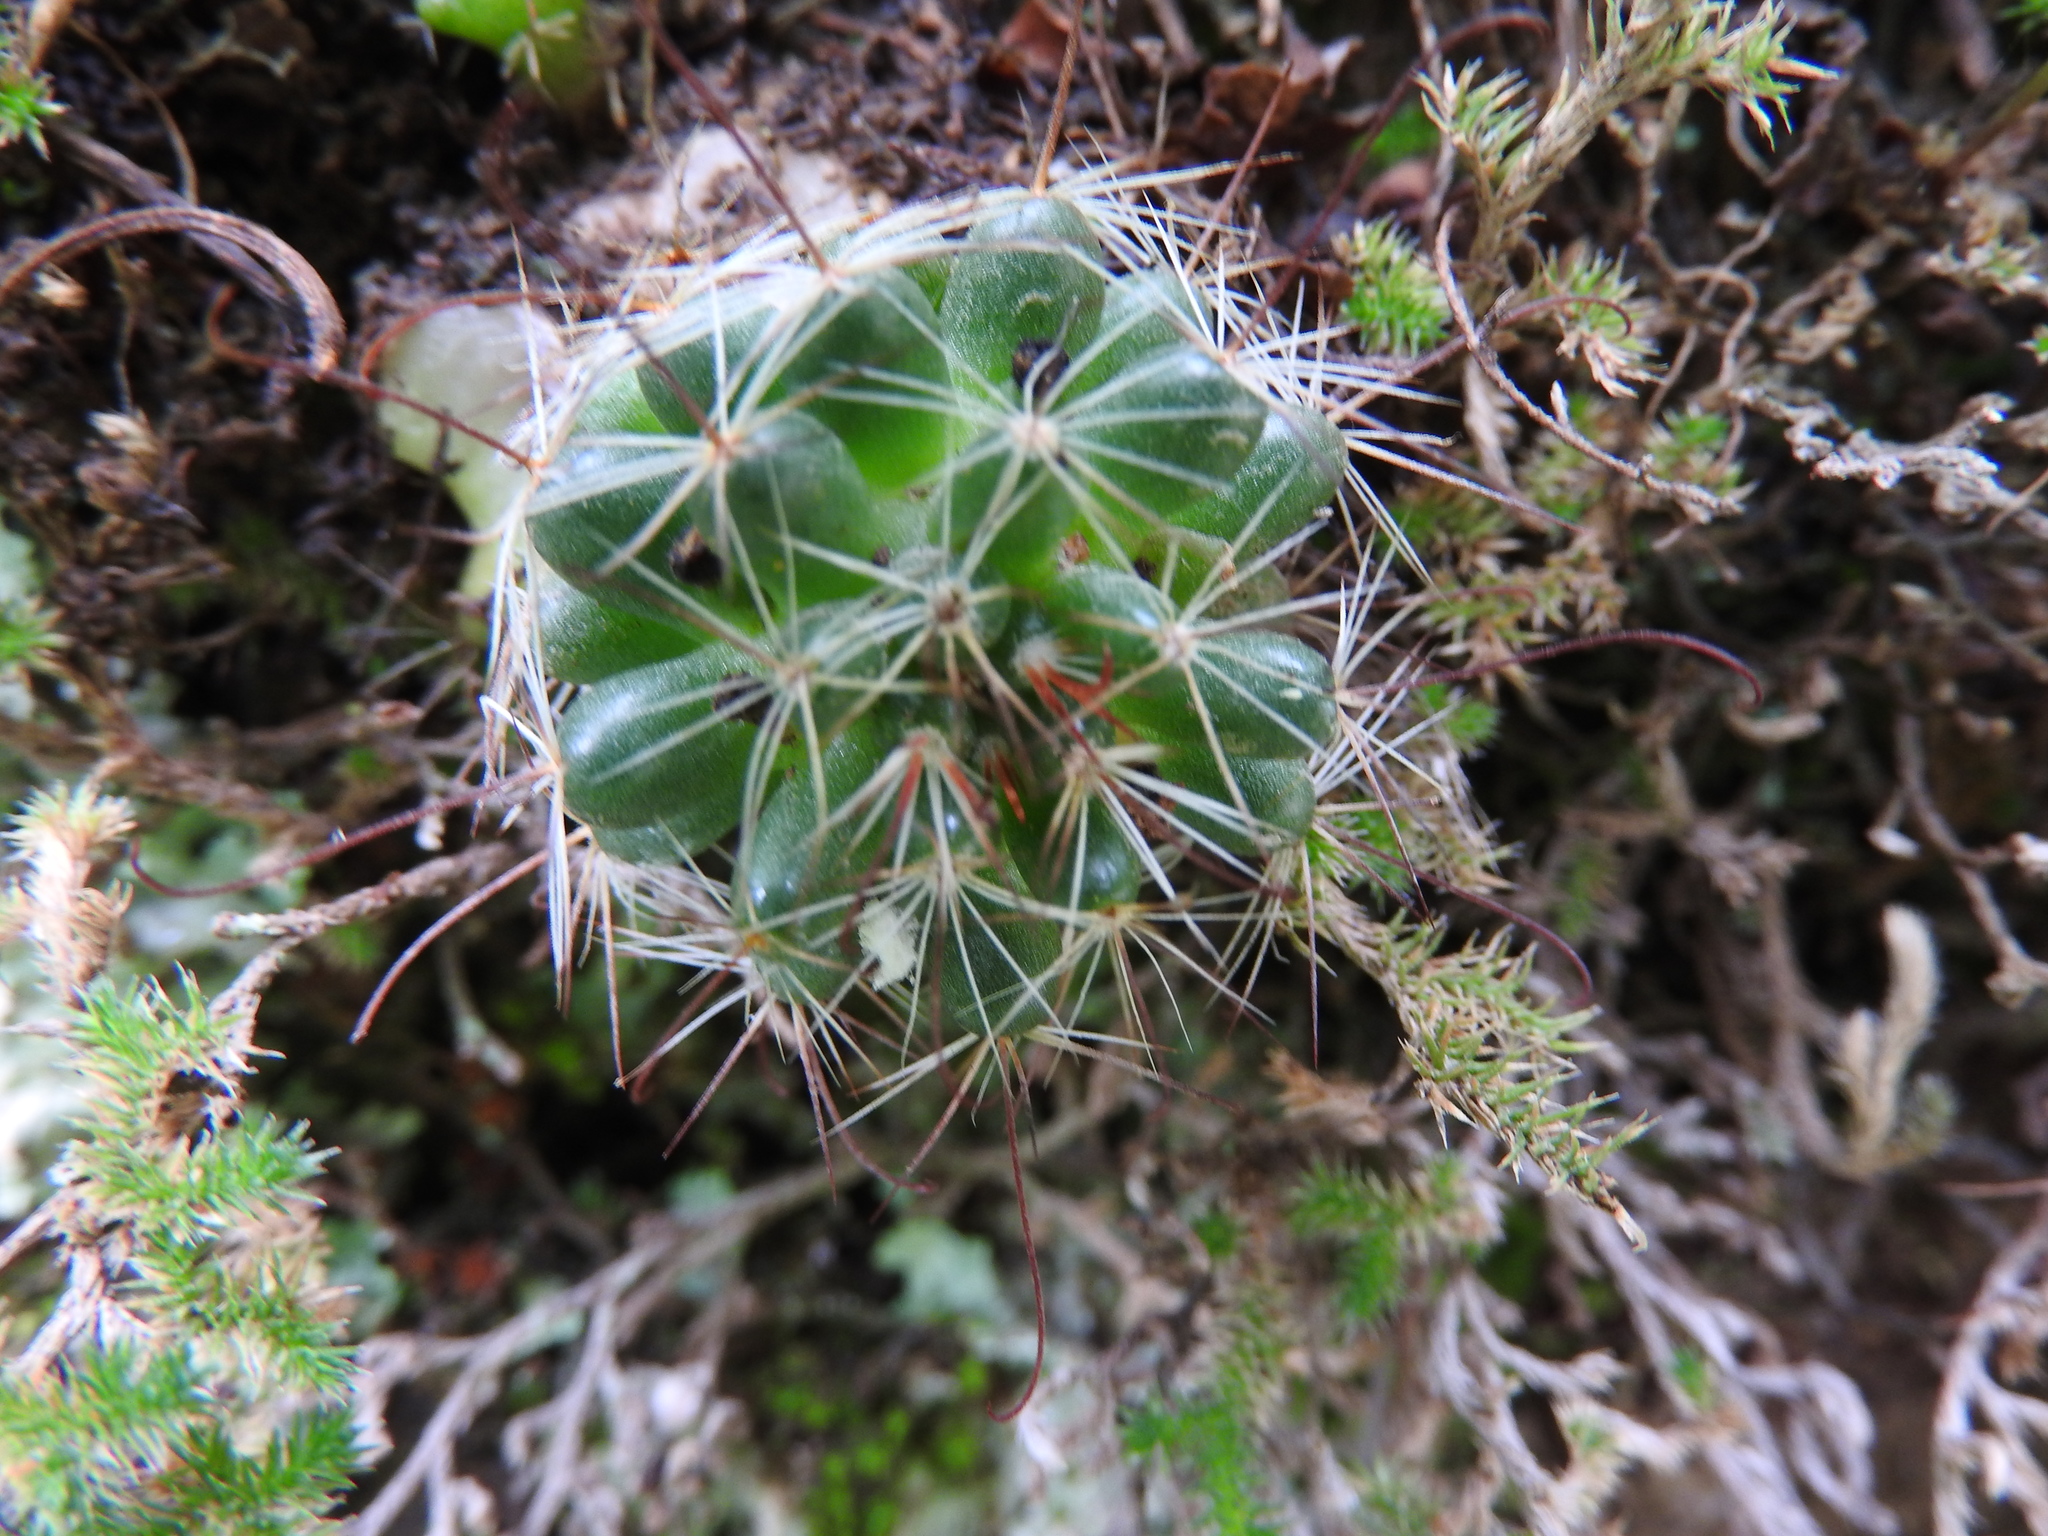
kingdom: Plantae
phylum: Tracheophyta
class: Magnoliopsida
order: Caryophyllales
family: Cactaceae
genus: Mammillaria
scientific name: Mammillaria fittkaui
